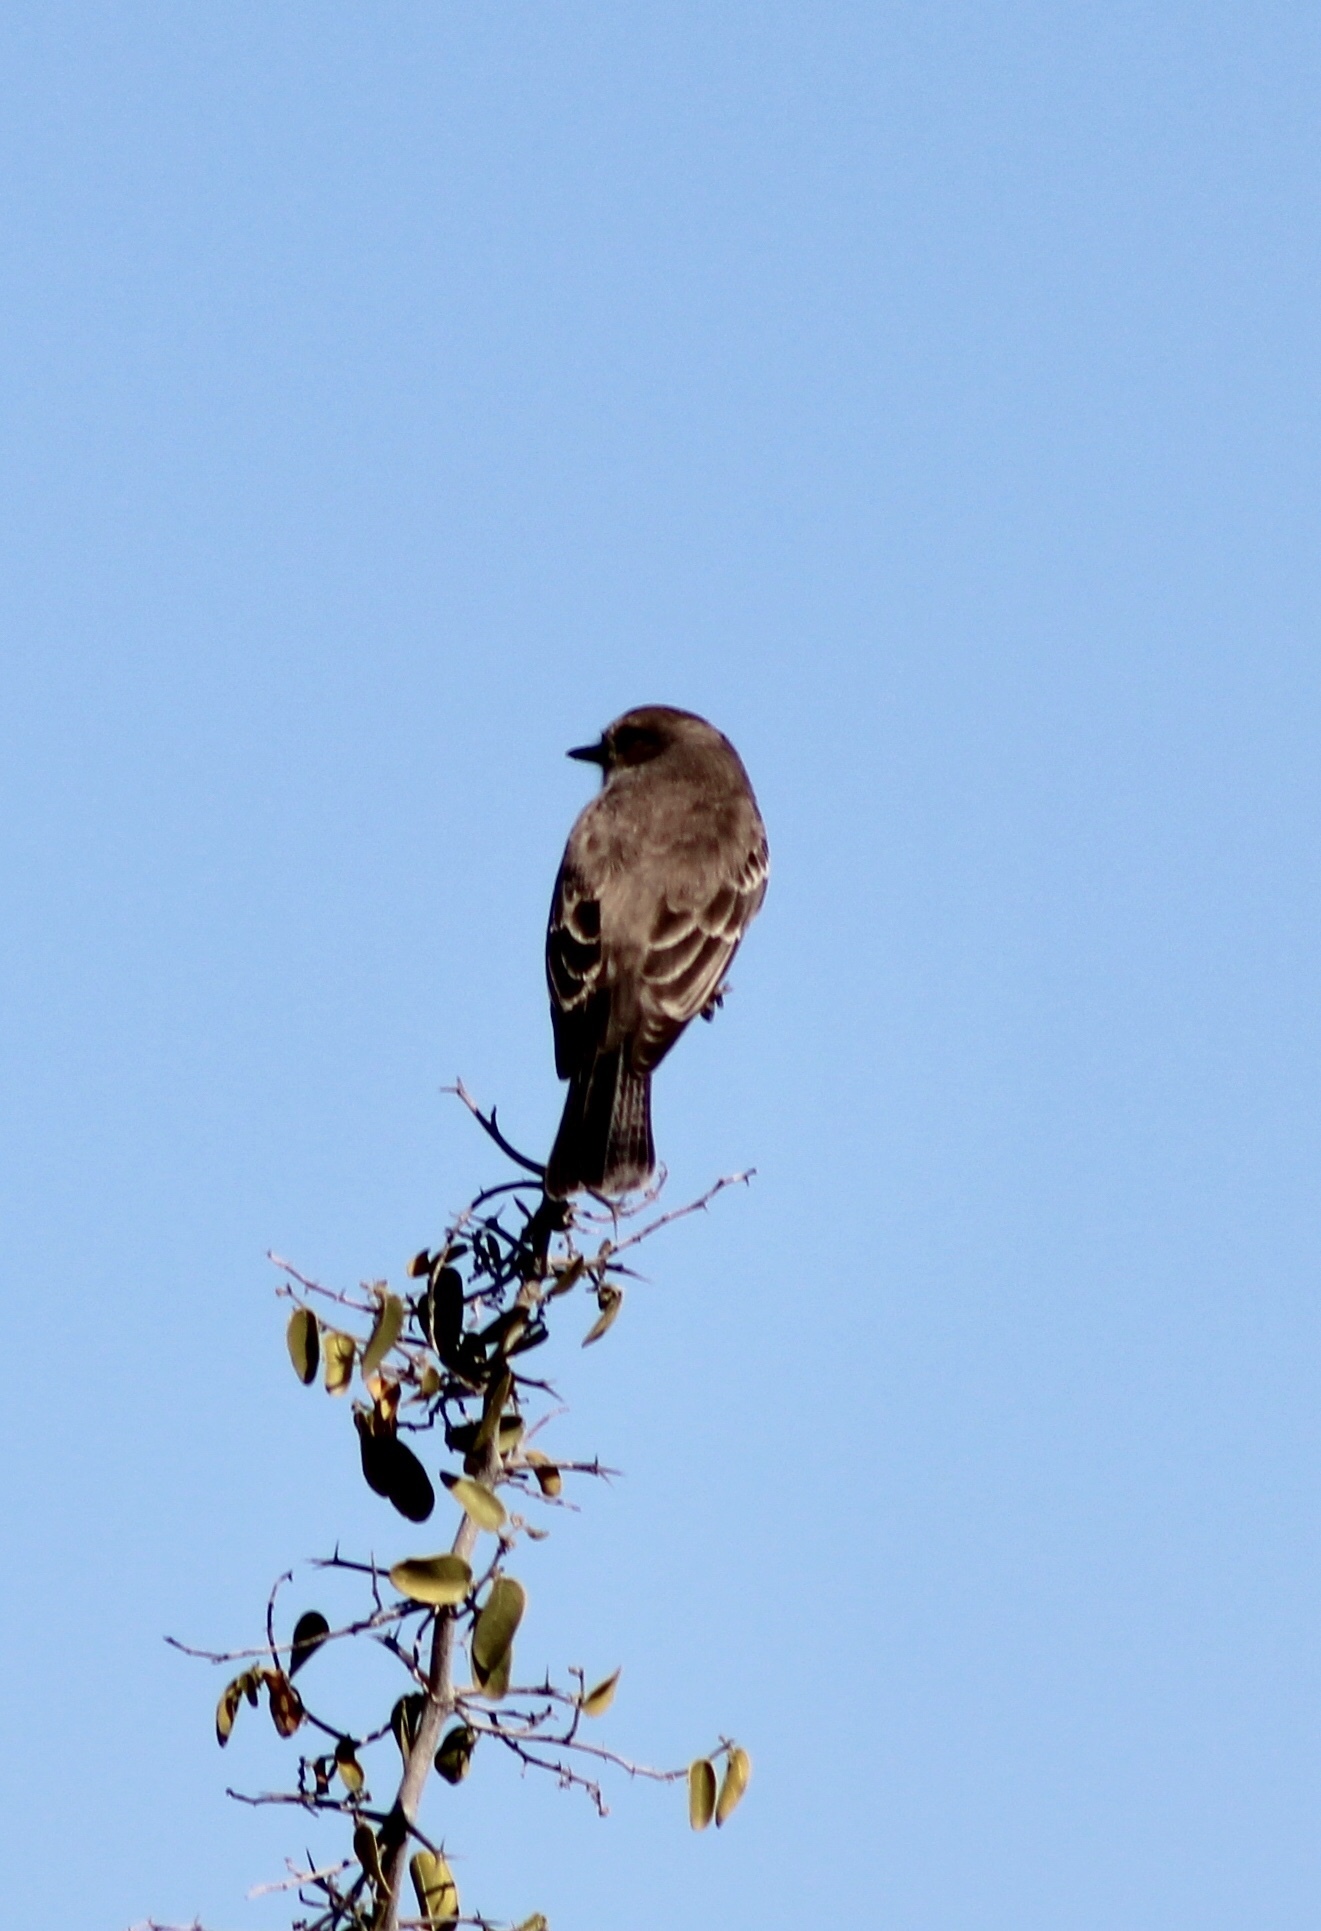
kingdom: Animalia
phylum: Chordata
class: Aves
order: Passeriformes
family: Tyrannidae
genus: Pyrocephalus
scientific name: Pyrocephalus rubinus
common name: Vermilion flycatcher
